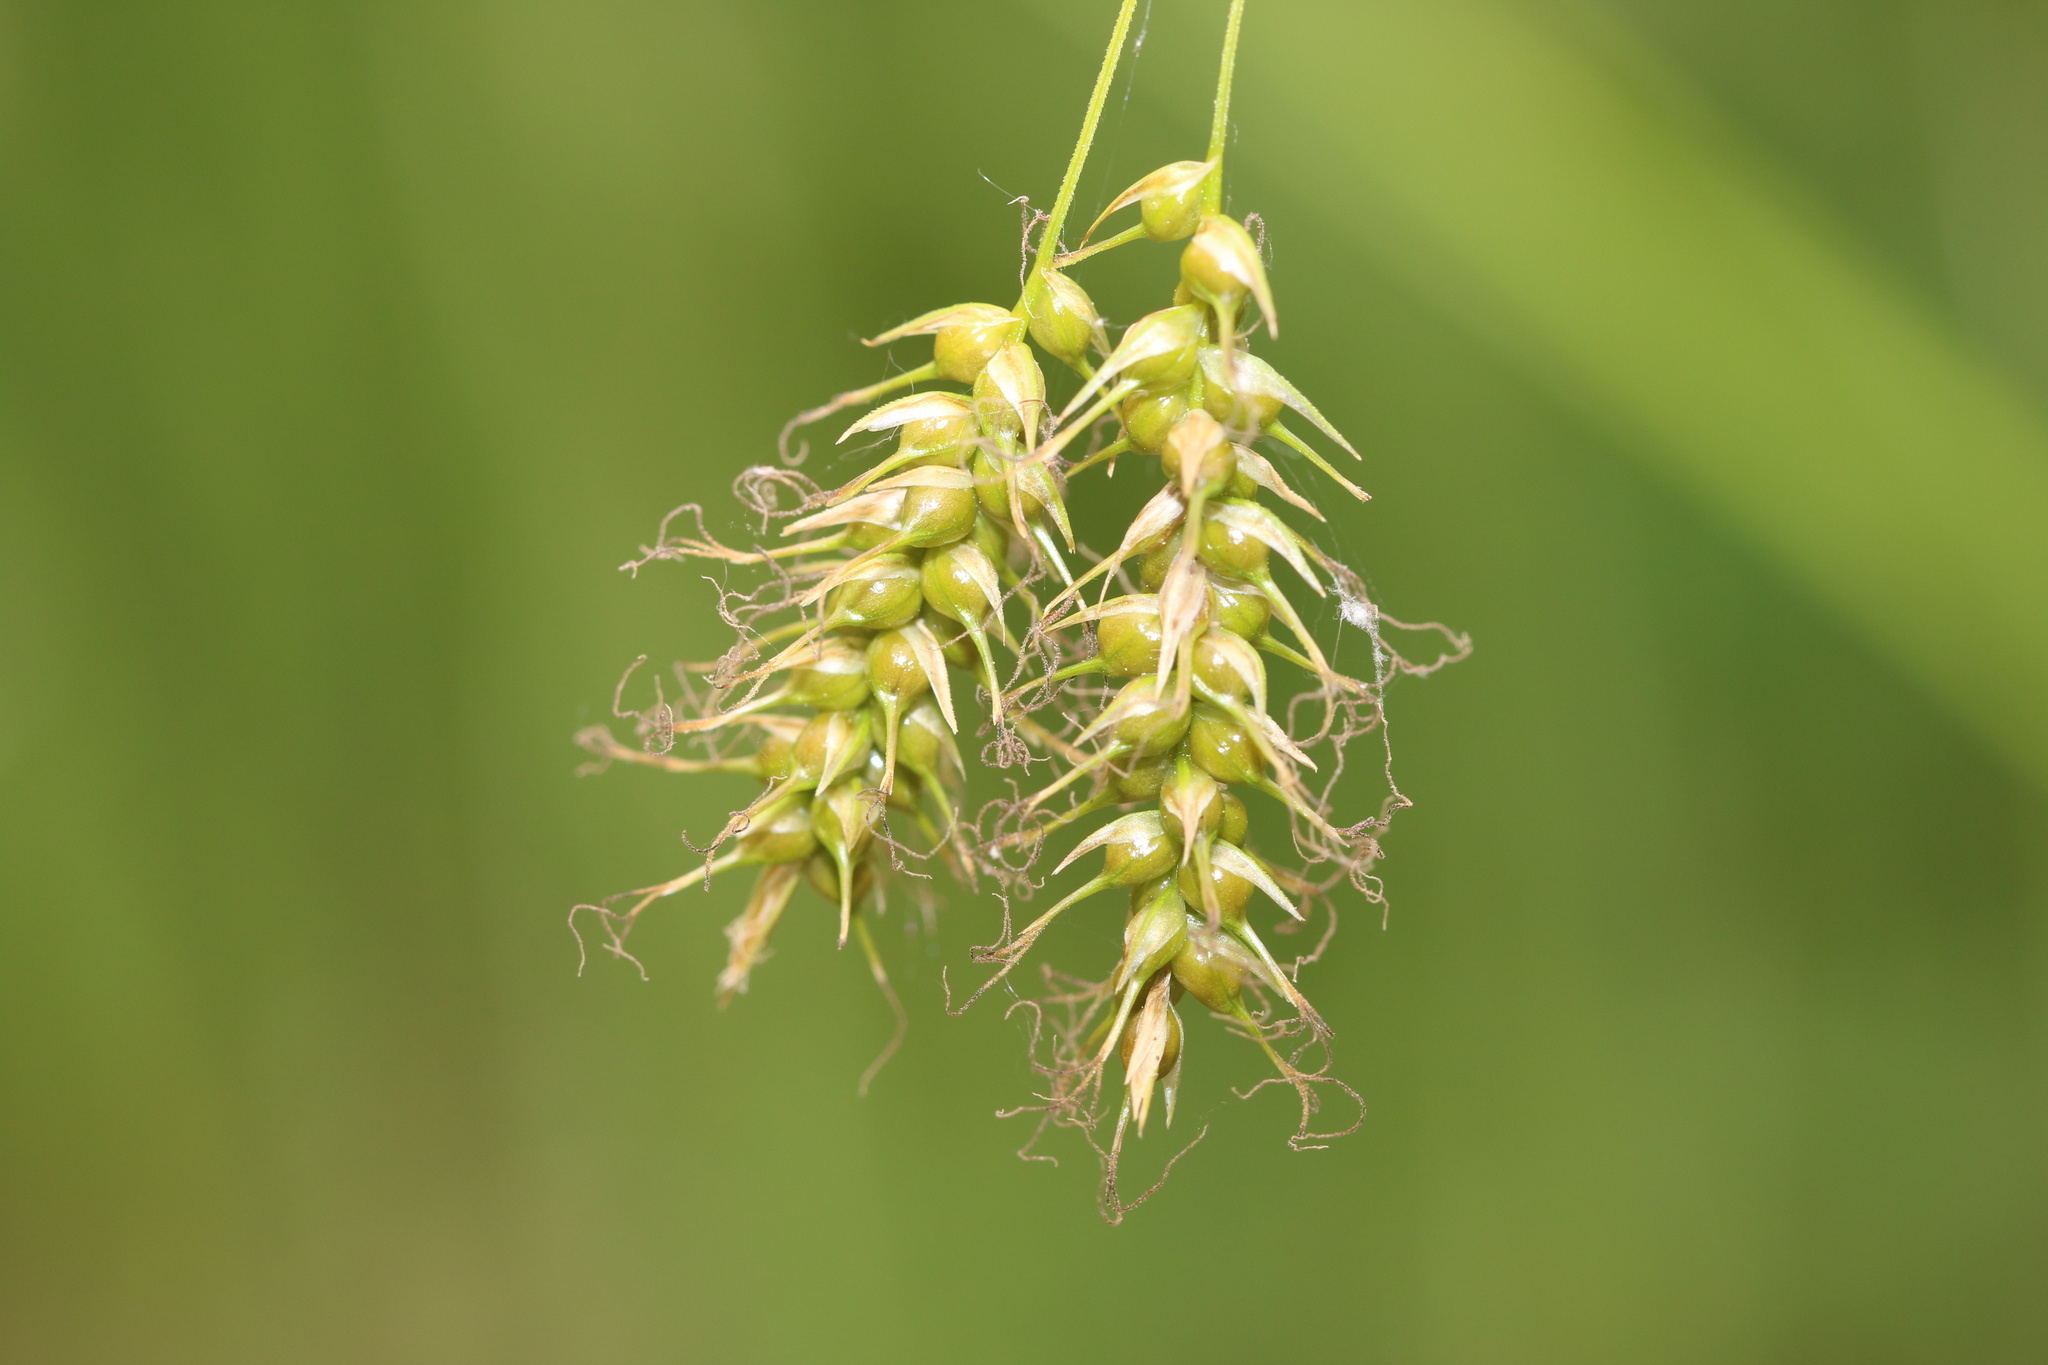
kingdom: Plantae
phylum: Tracheophyta
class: Liliopsida
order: Poales
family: Cyperaceae
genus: Carex
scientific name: Carex sprengelii
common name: Long-beaked sedge
